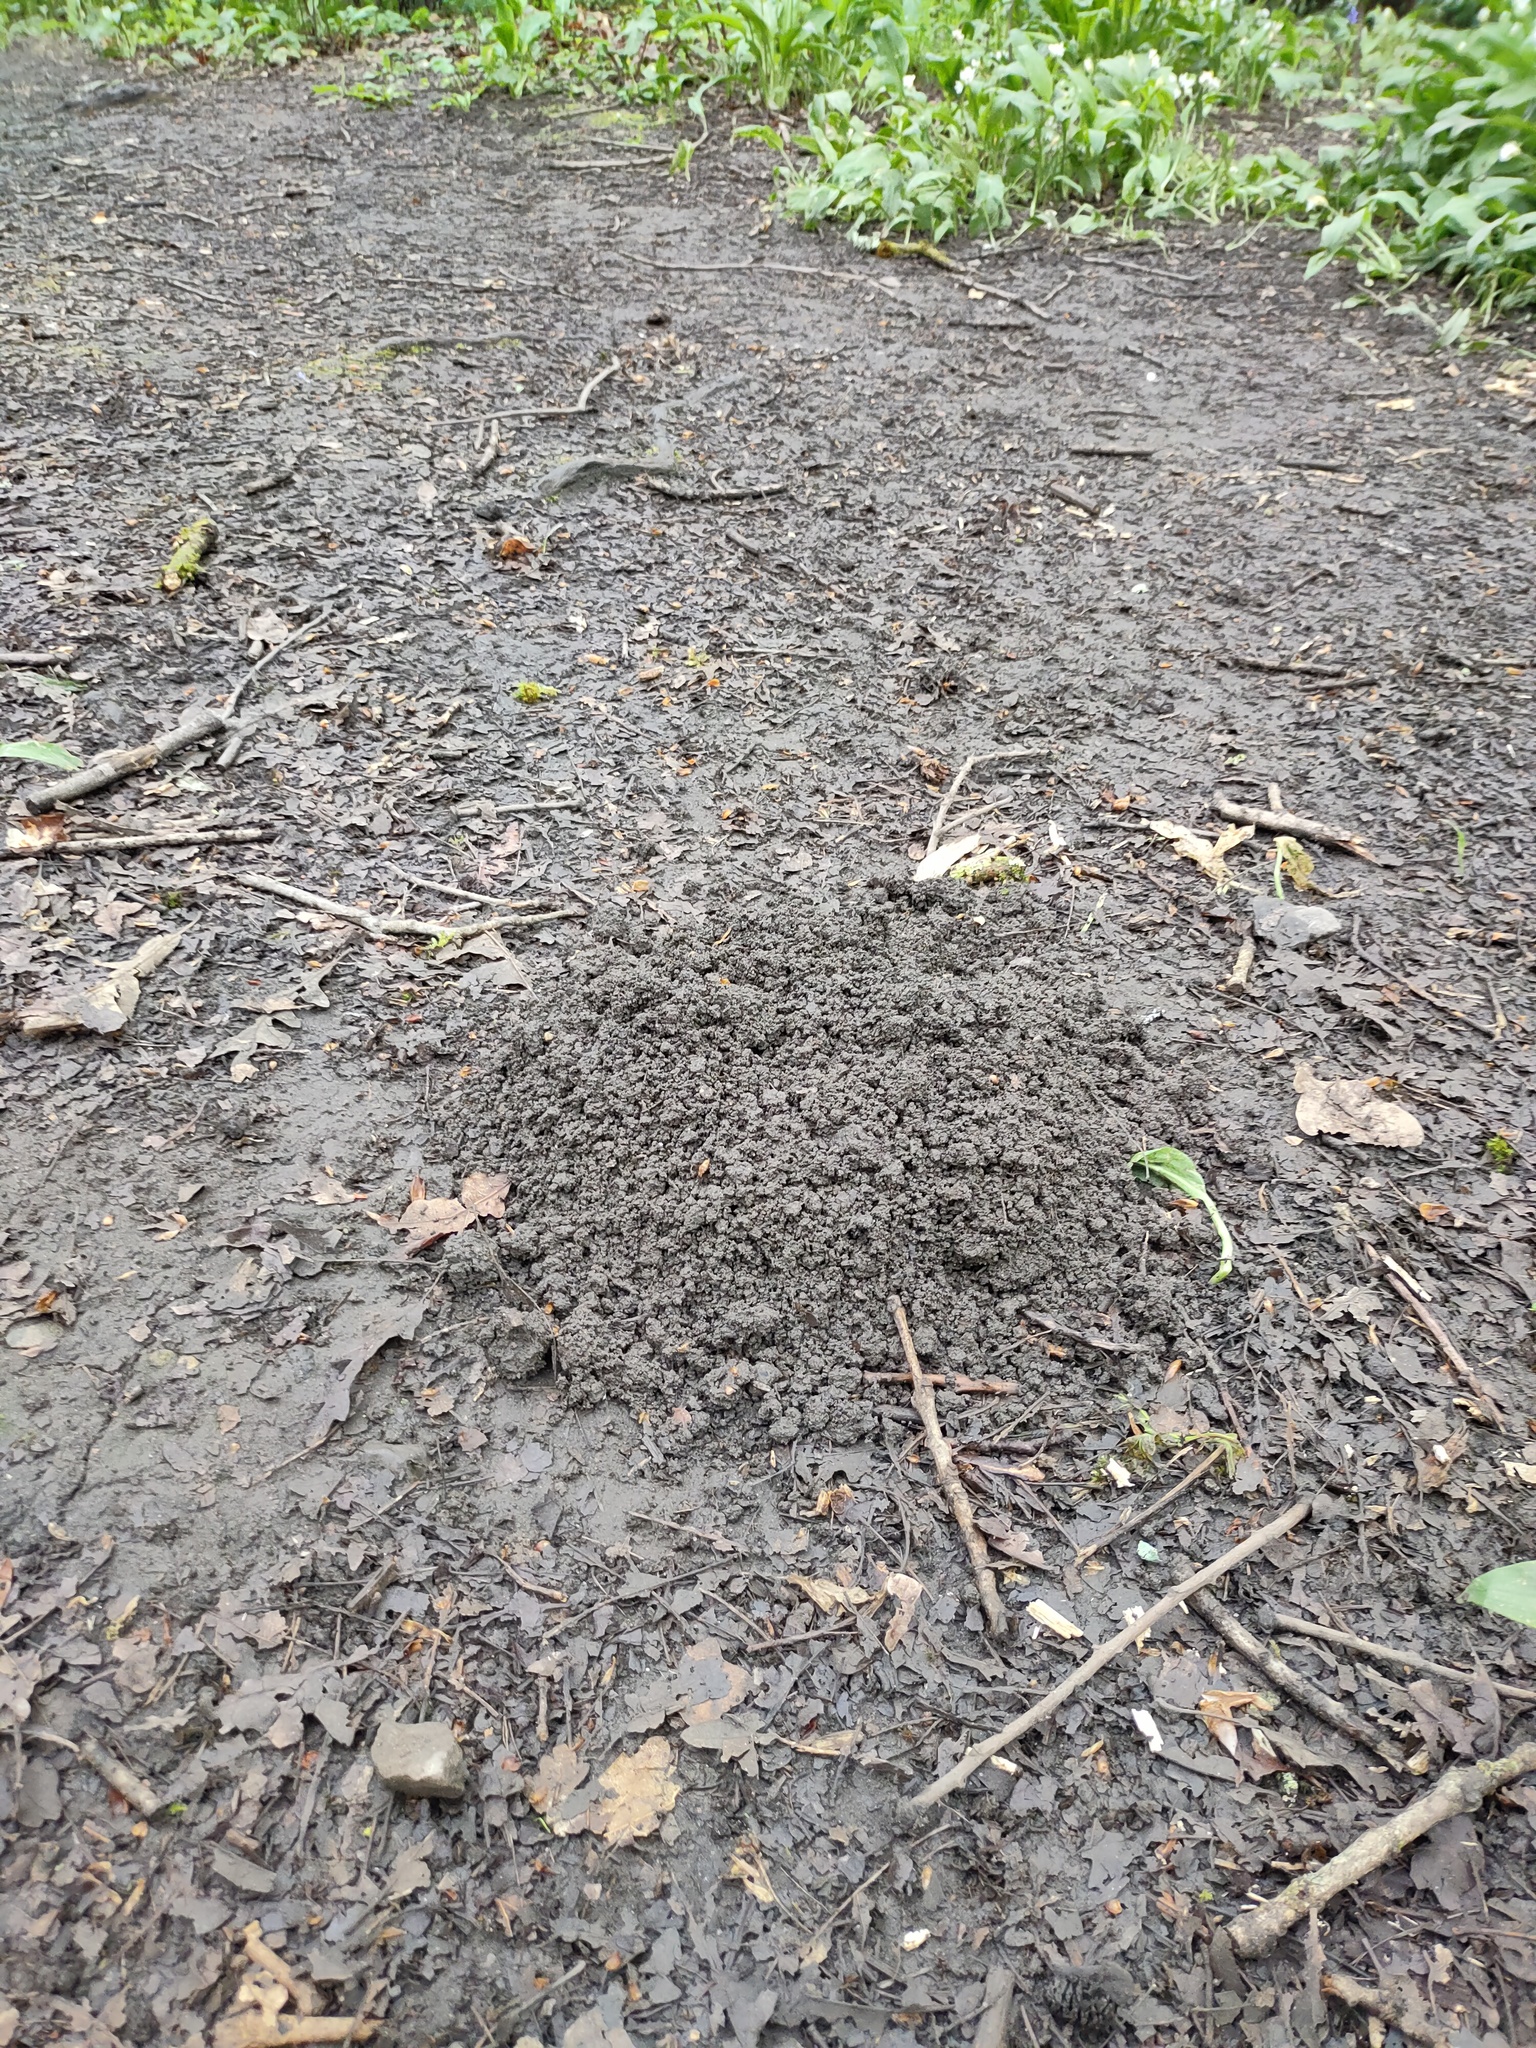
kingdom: Animalia
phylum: Chordata
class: Mammalia
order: Soricomorpha
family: Talpidae
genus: Talpa
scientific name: Talpa europaea
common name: European mole
